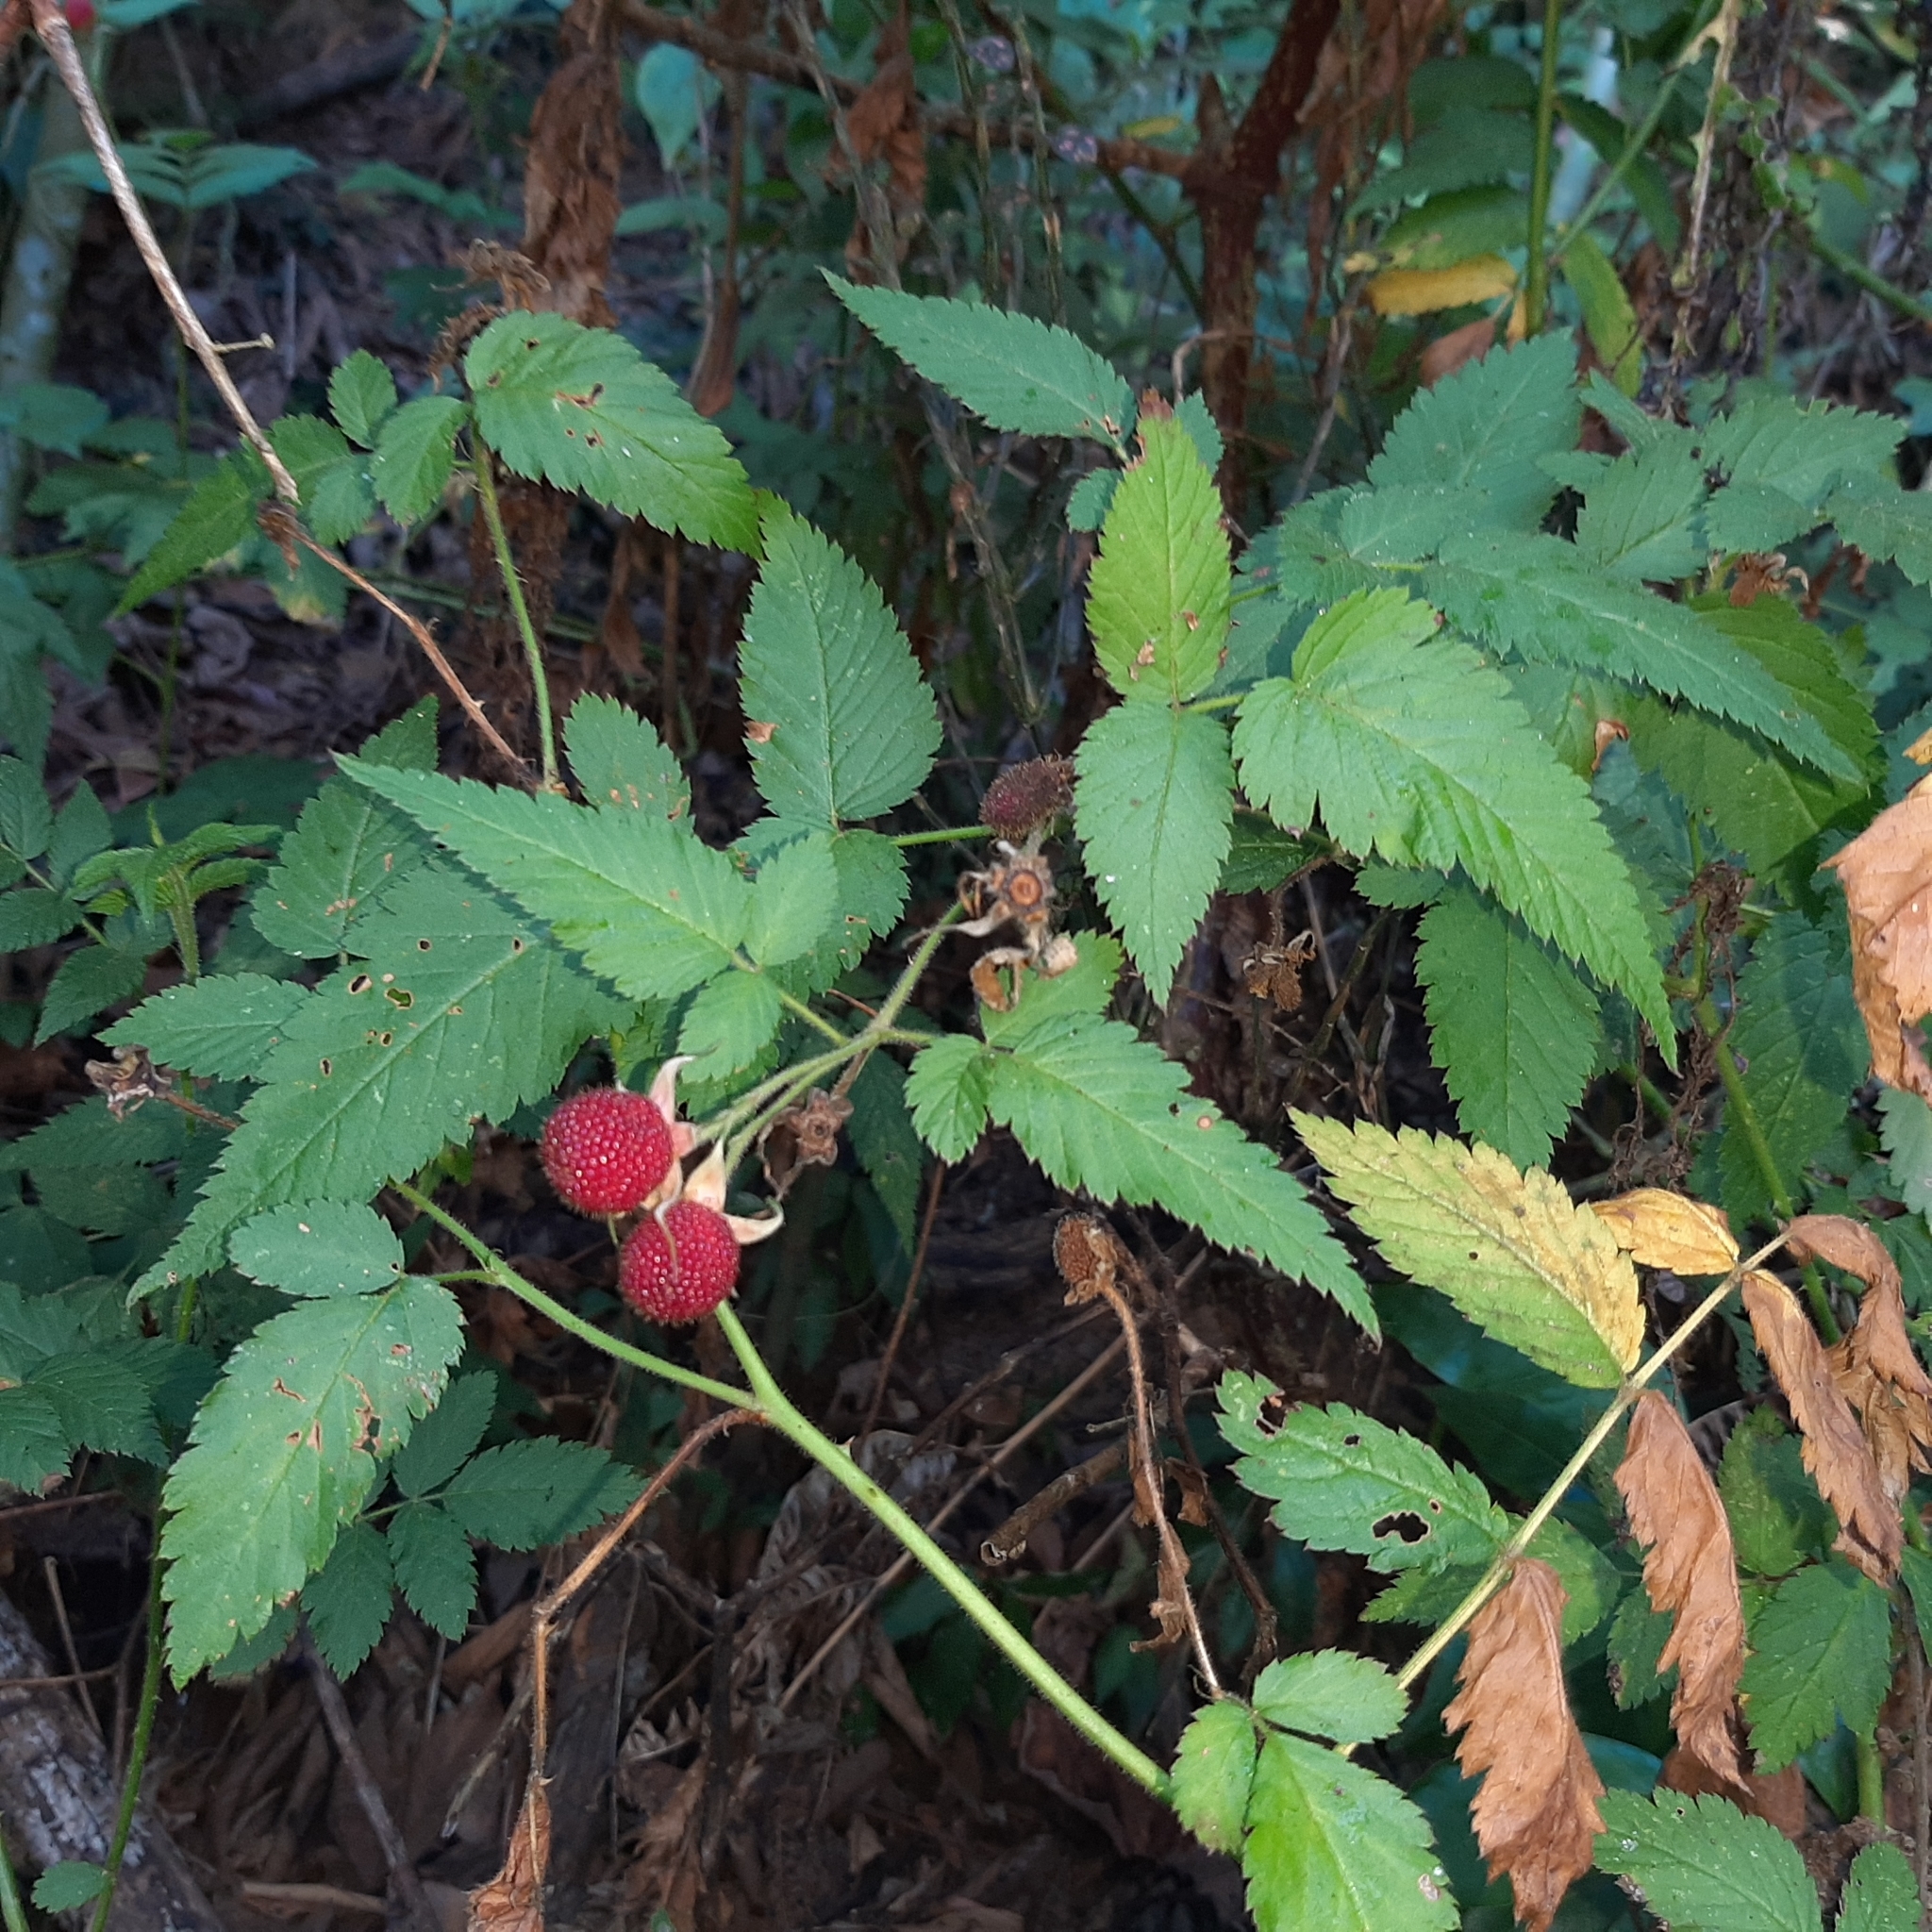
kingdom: Plantae
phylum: Tracheophyta
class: Magnoliopsida
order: Rosales
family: Rosaceae
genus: Rubus
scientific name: Rubus rosifolius
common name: Roseleaf raspberry
